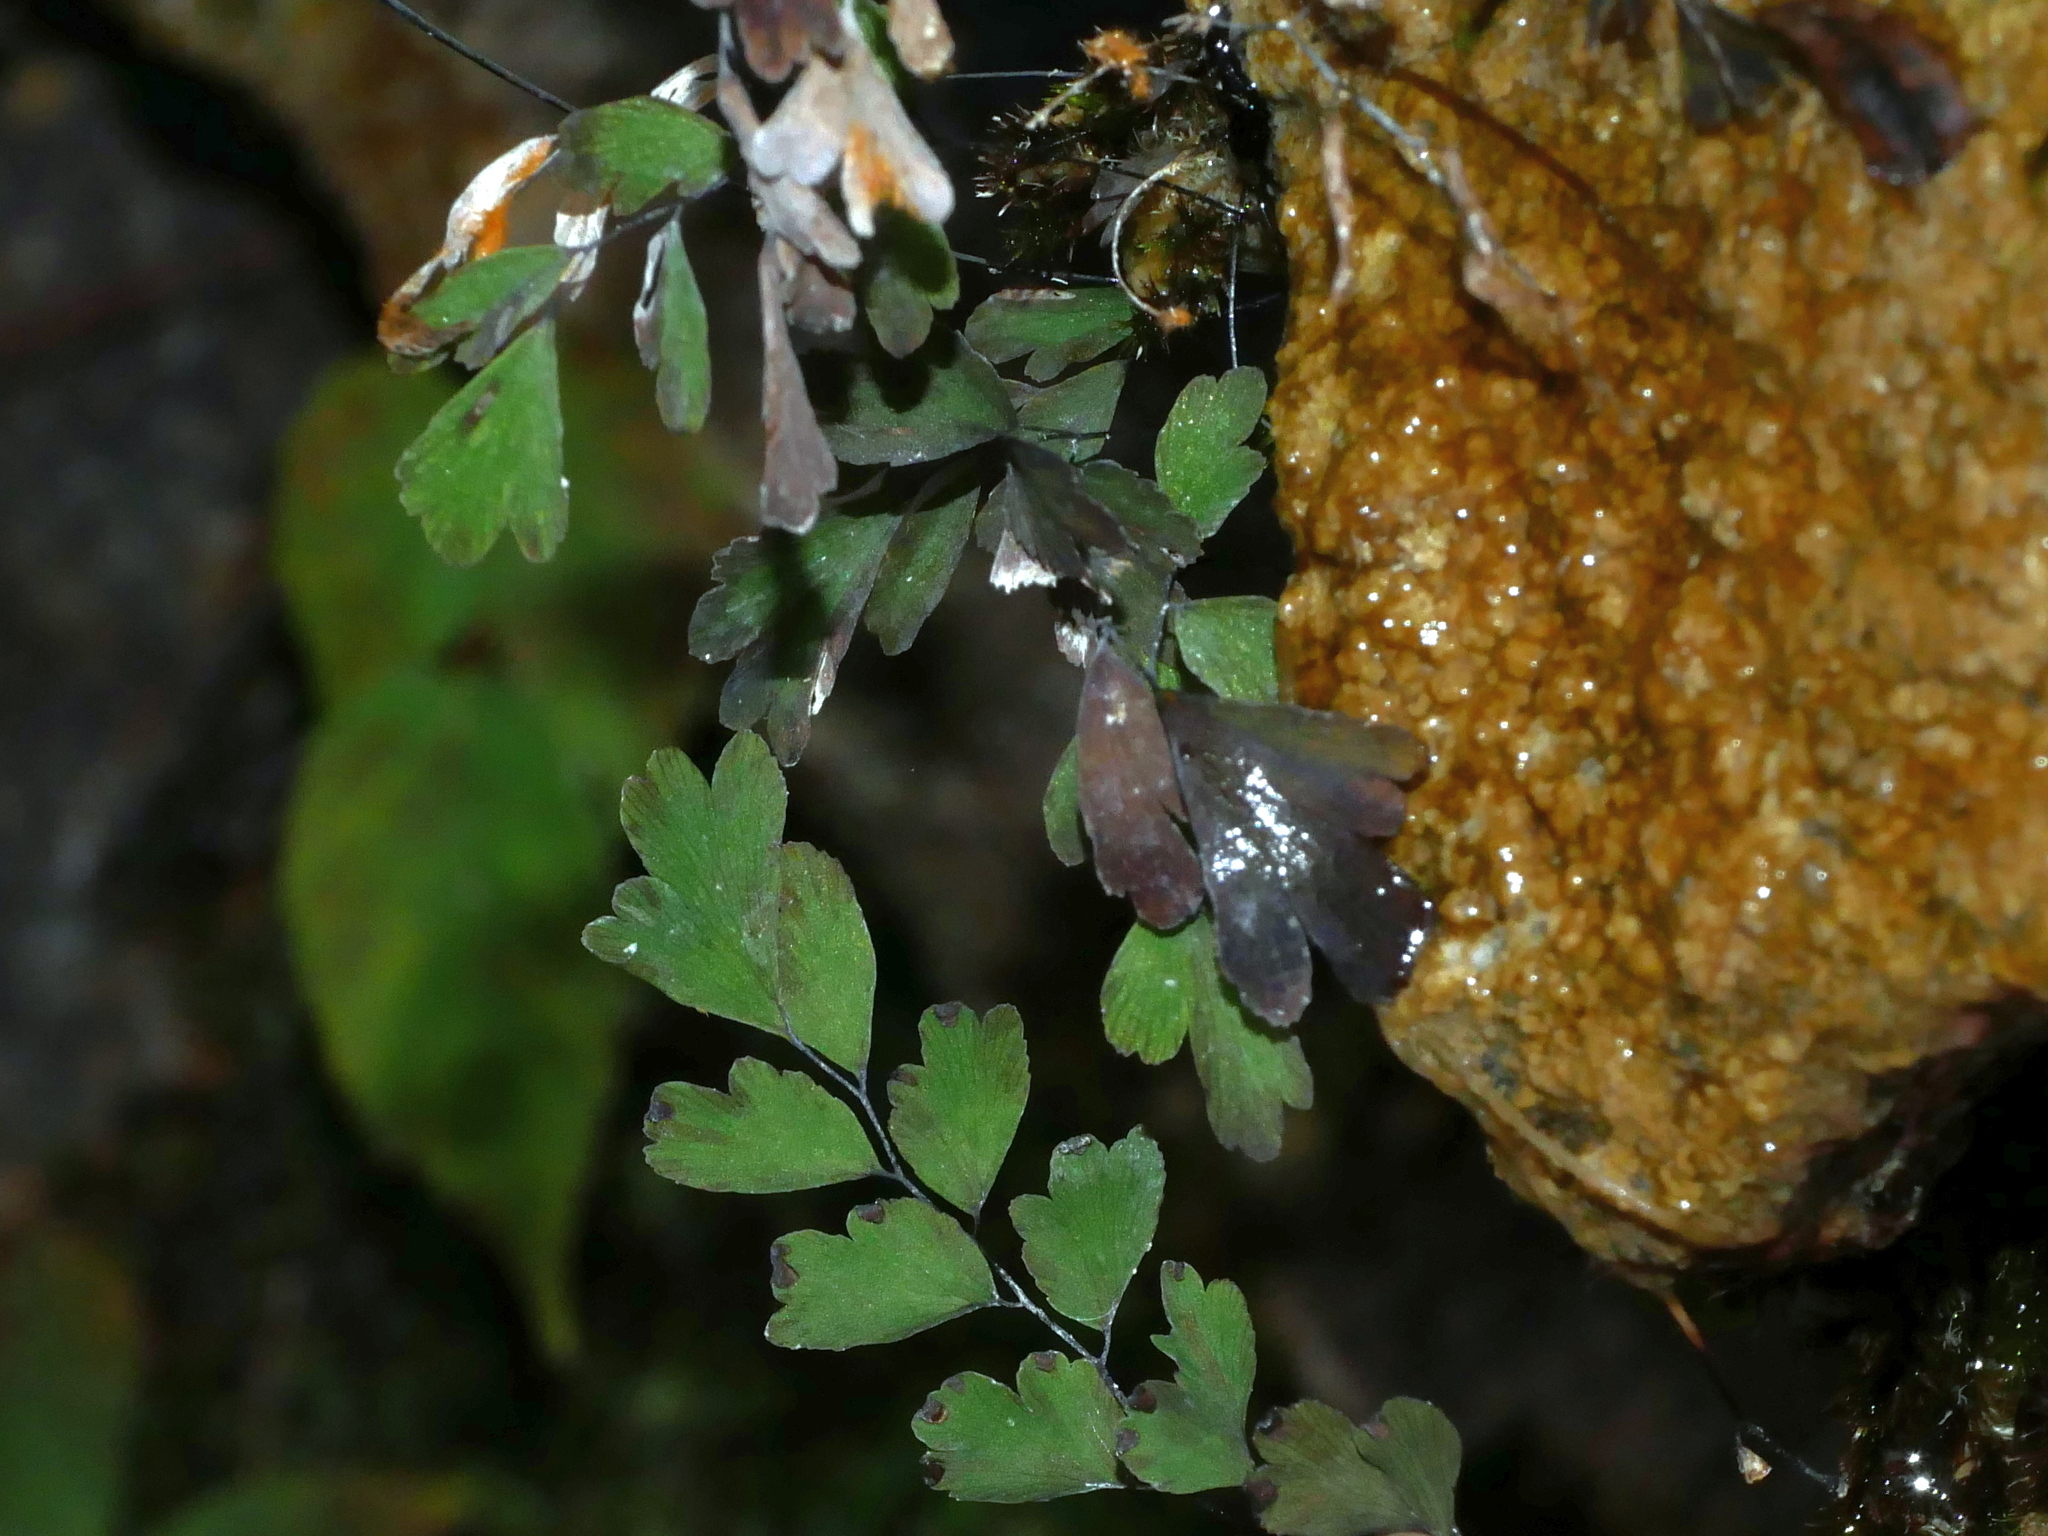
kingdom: Plantae
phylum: Tracheophyta
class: Polypodiopsida
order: Polypodiales
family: Pteridaceae
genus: Adiantum
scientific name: Adiantum capillus-veneris
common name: Maidenhair fern
